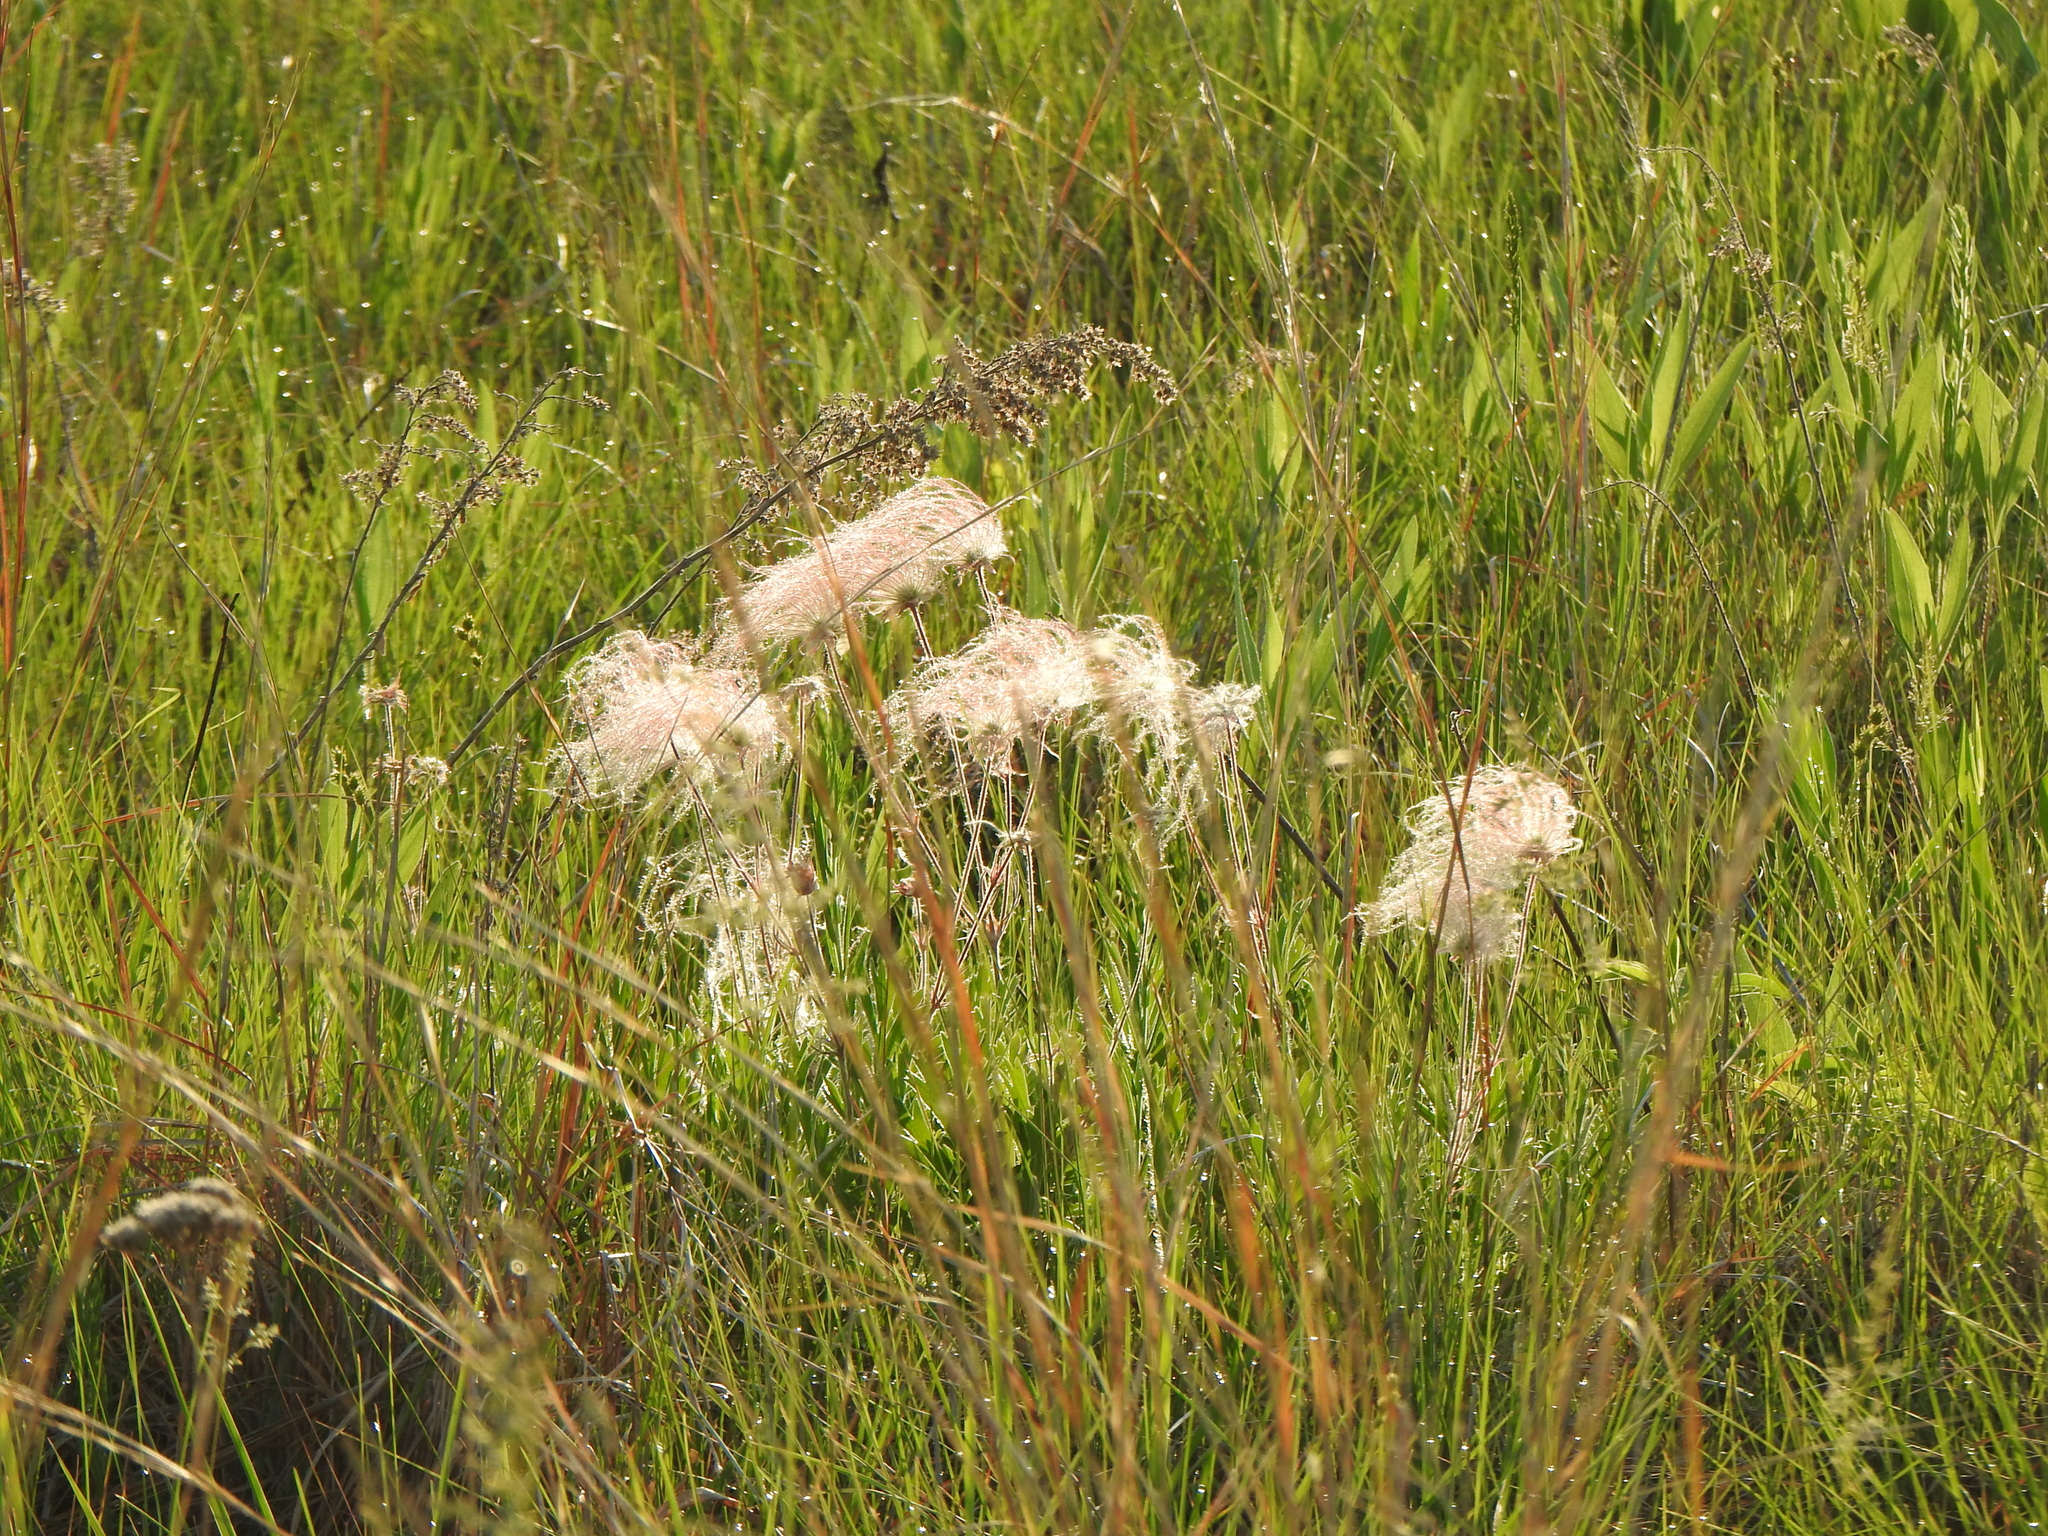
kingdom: Plantae
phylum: Tracheophyta
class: Magnoliopsida
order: Rosales
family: Rosaceae
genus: Geum
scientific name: Geum triflorum
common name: Old man's whiskers
